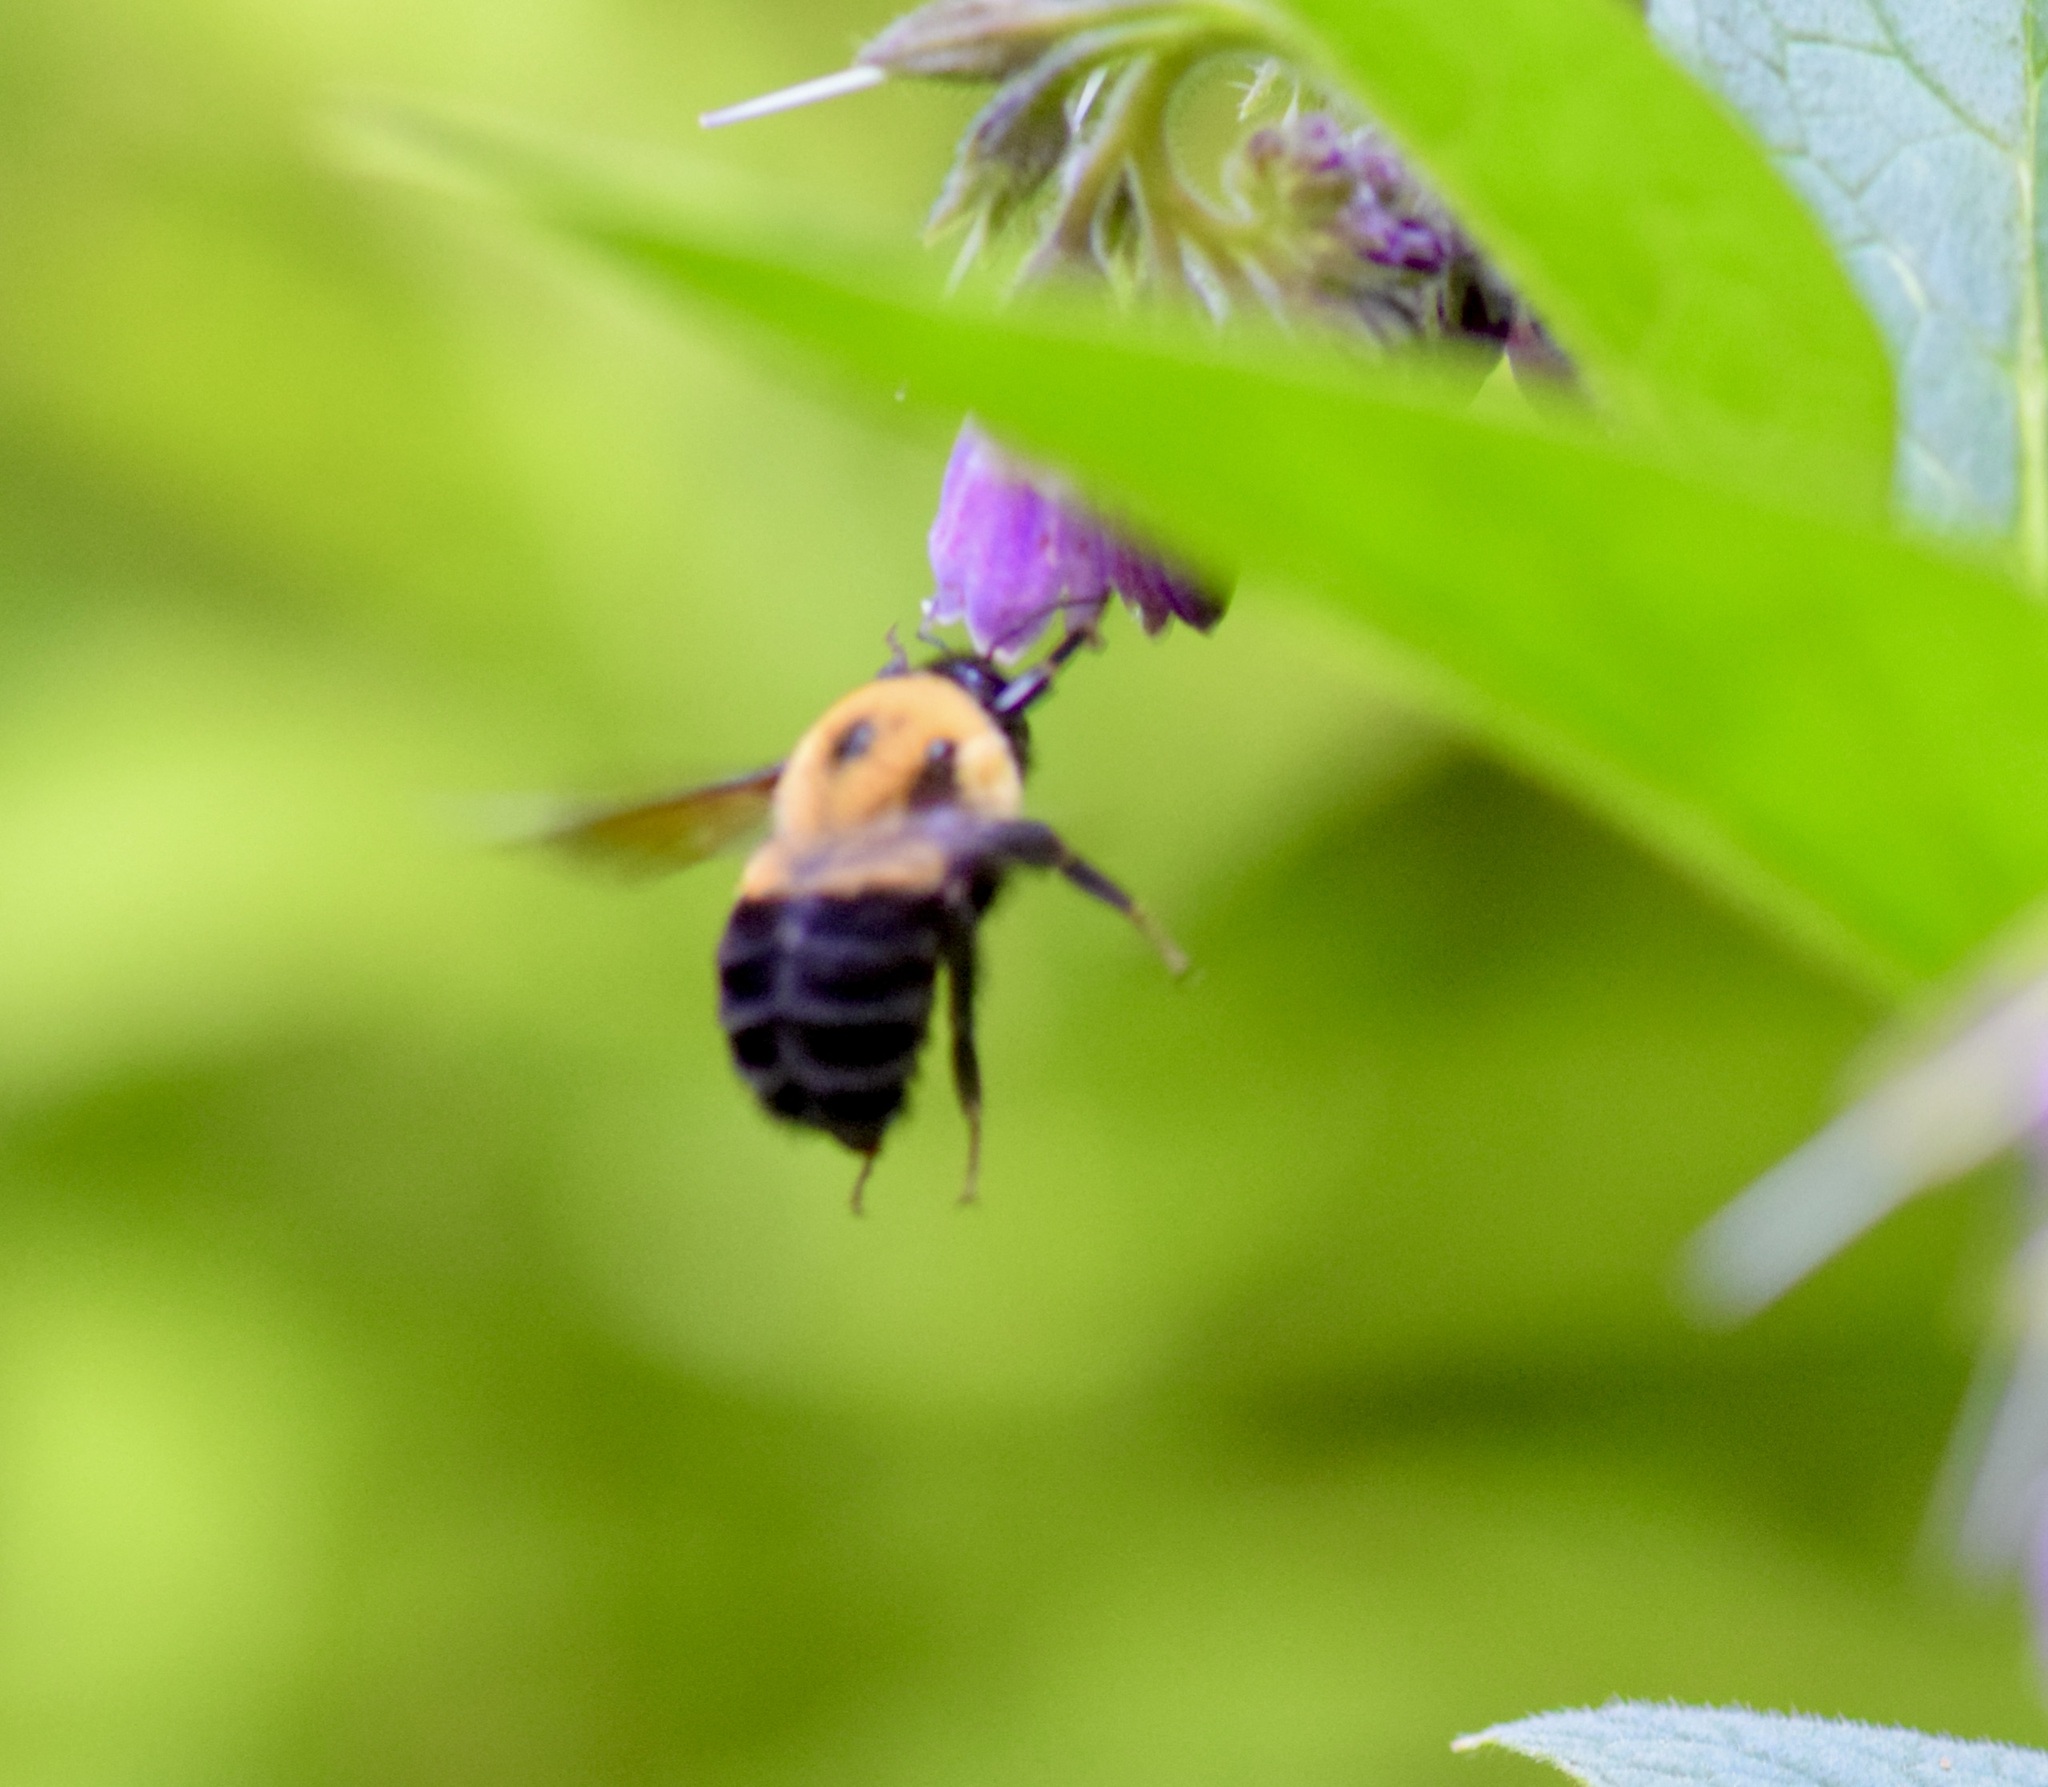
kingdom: Animalia
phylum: Arthropoda
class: Insecta
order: Hymenoptera
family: Apidae
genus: Bombus
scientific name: Bombus griseocollis
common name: Brown-belted bumble bee
